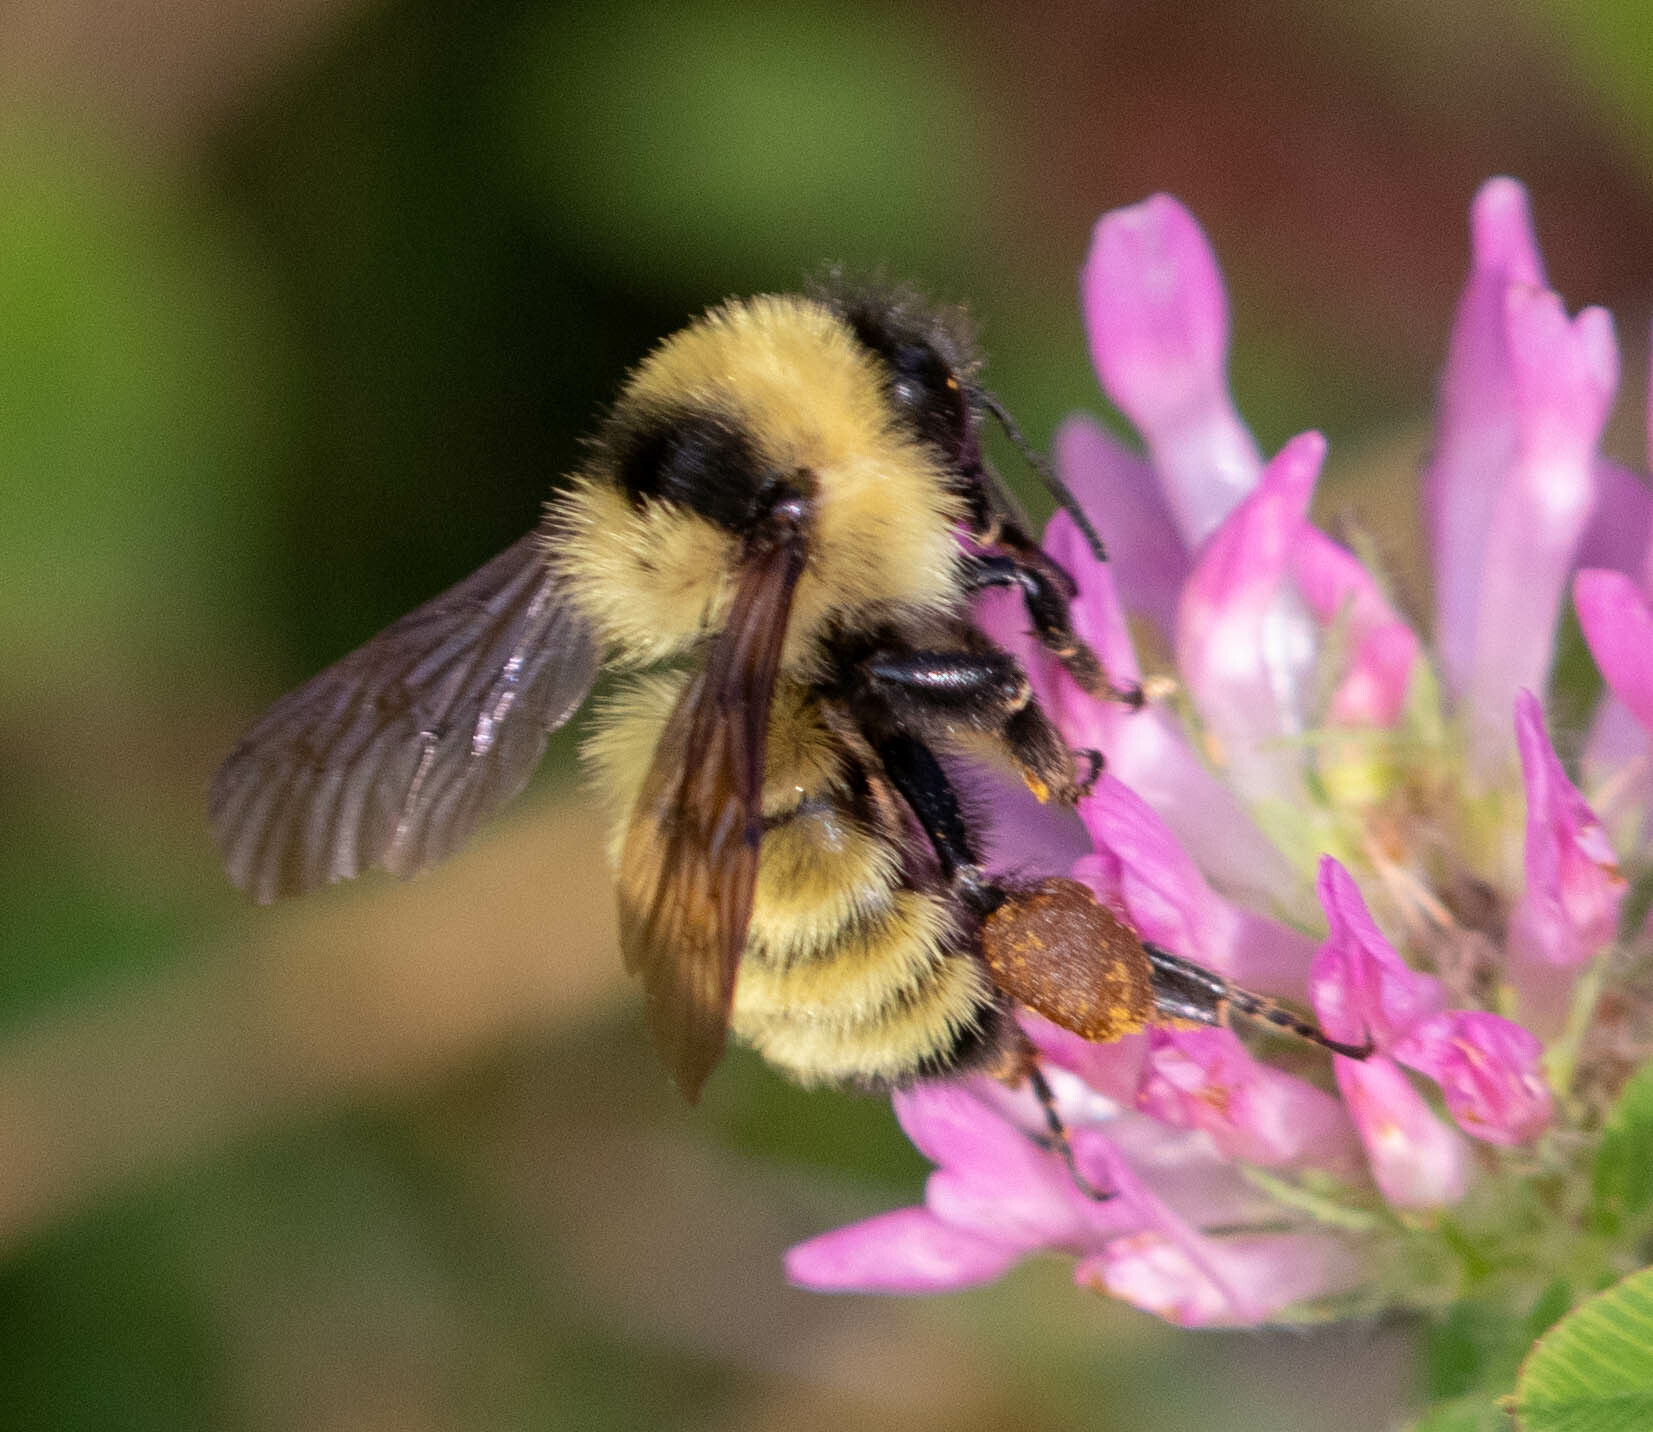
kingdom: Animalia
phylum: Arthropoda
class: Insecta
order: Hymenoptera
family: Apidae
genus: Bombus
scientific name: Bombus fervidus
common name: Yellow bumble bee
